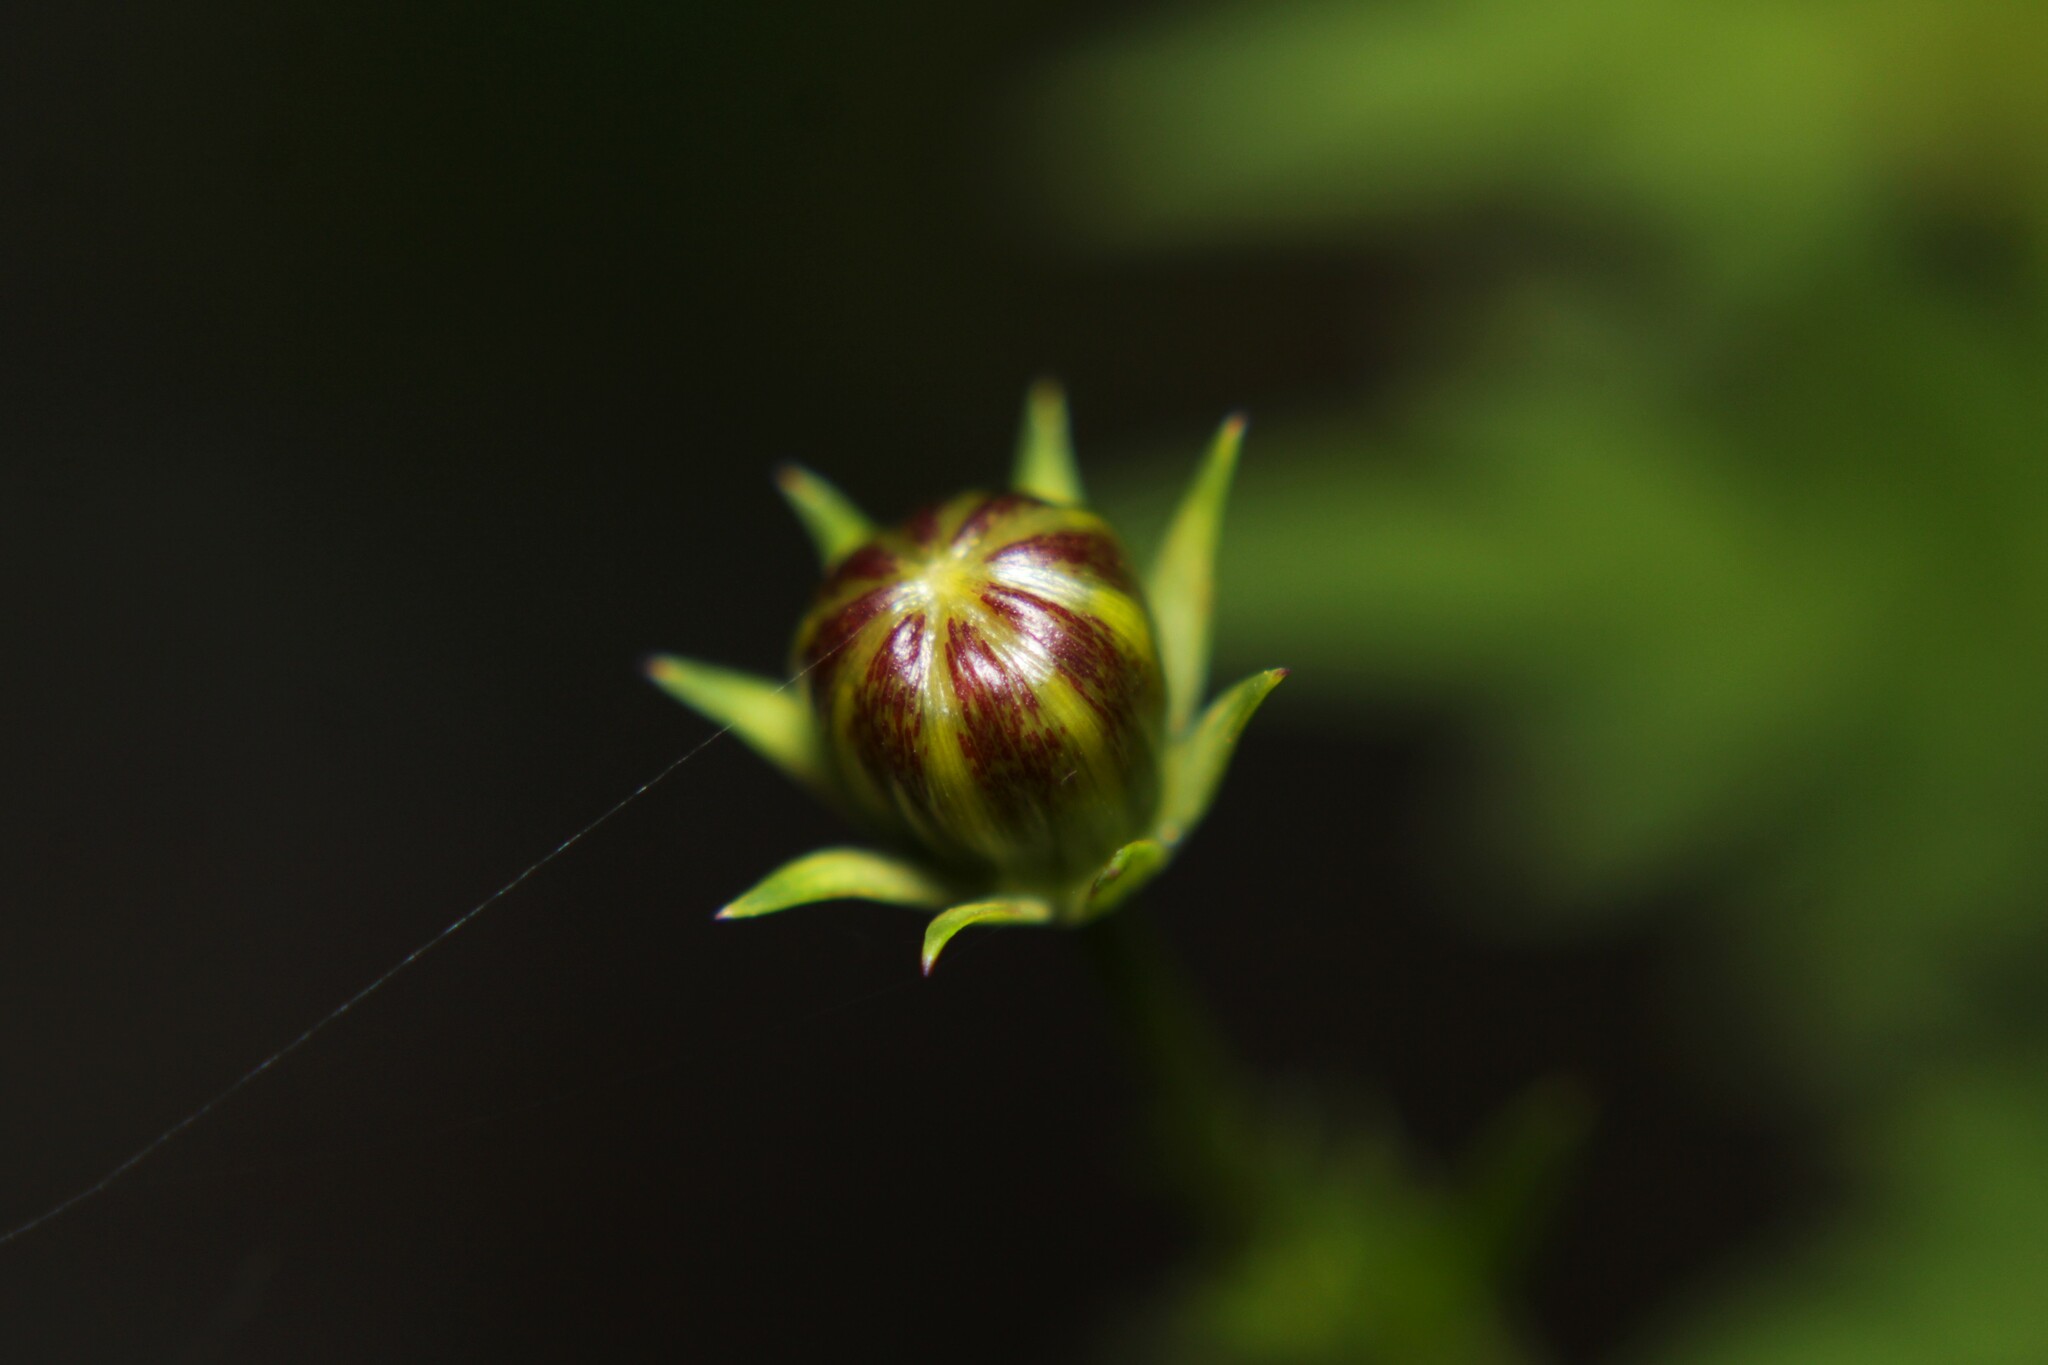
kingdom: Plantae
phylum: Tracheophyta
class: Magnoliopsida
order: Asterales
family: Asteraceae
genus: Cosmos
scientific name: Cosmos sulphureus
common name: Sulphur cosmos
